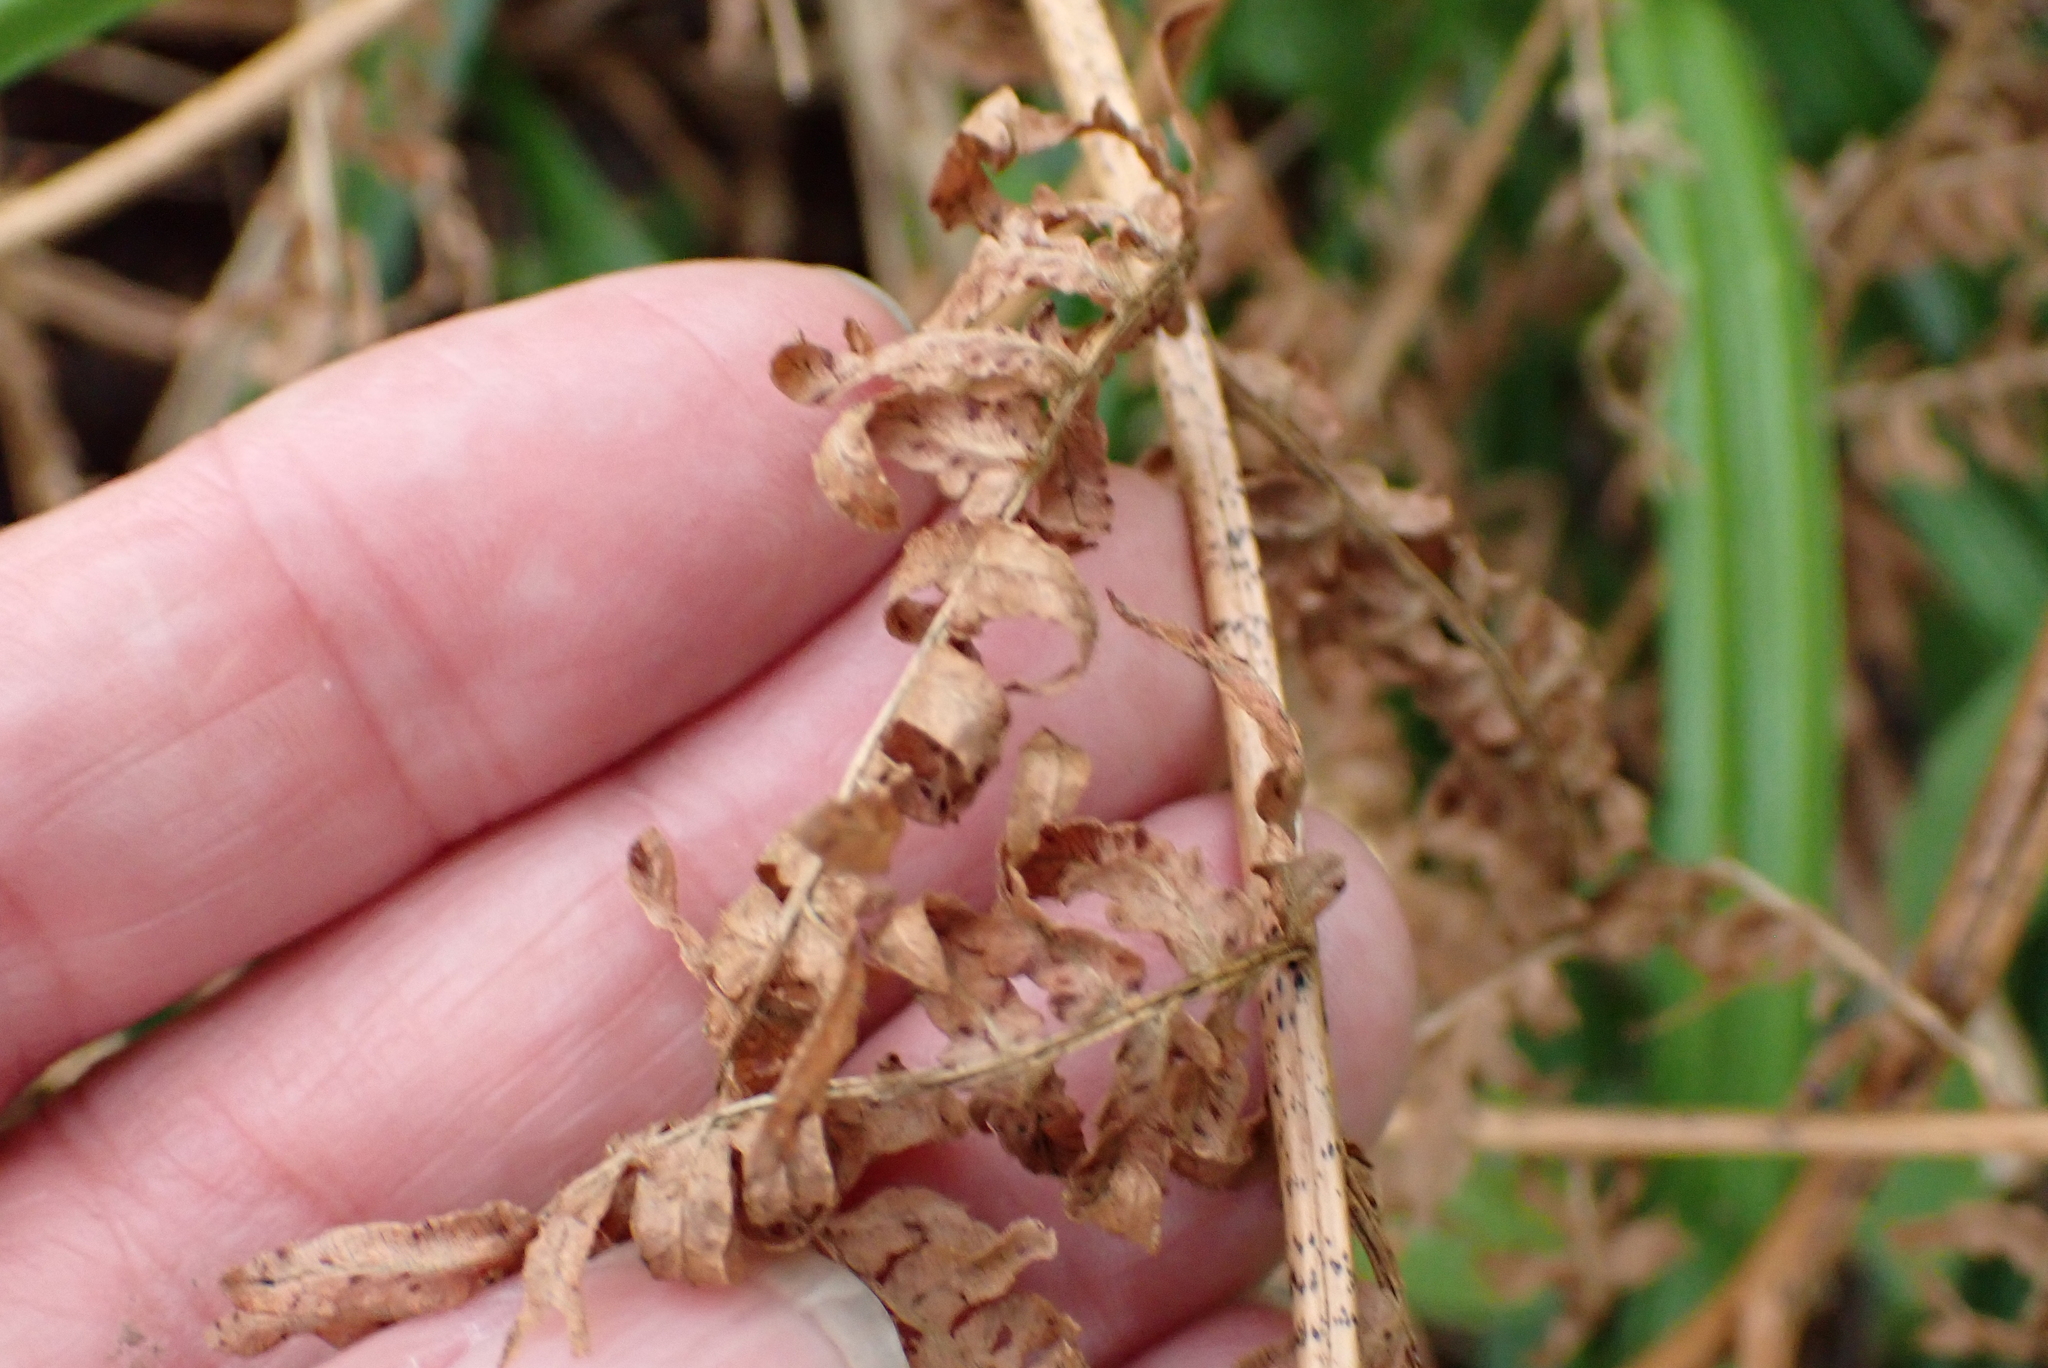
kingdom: Plantae
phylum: Tracheophyta
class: Polypodiopsida
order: Polypodiales
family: Dennstaedtiaceae
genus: Pteridium
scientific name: Pteridium aquilinum
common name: Bracken
